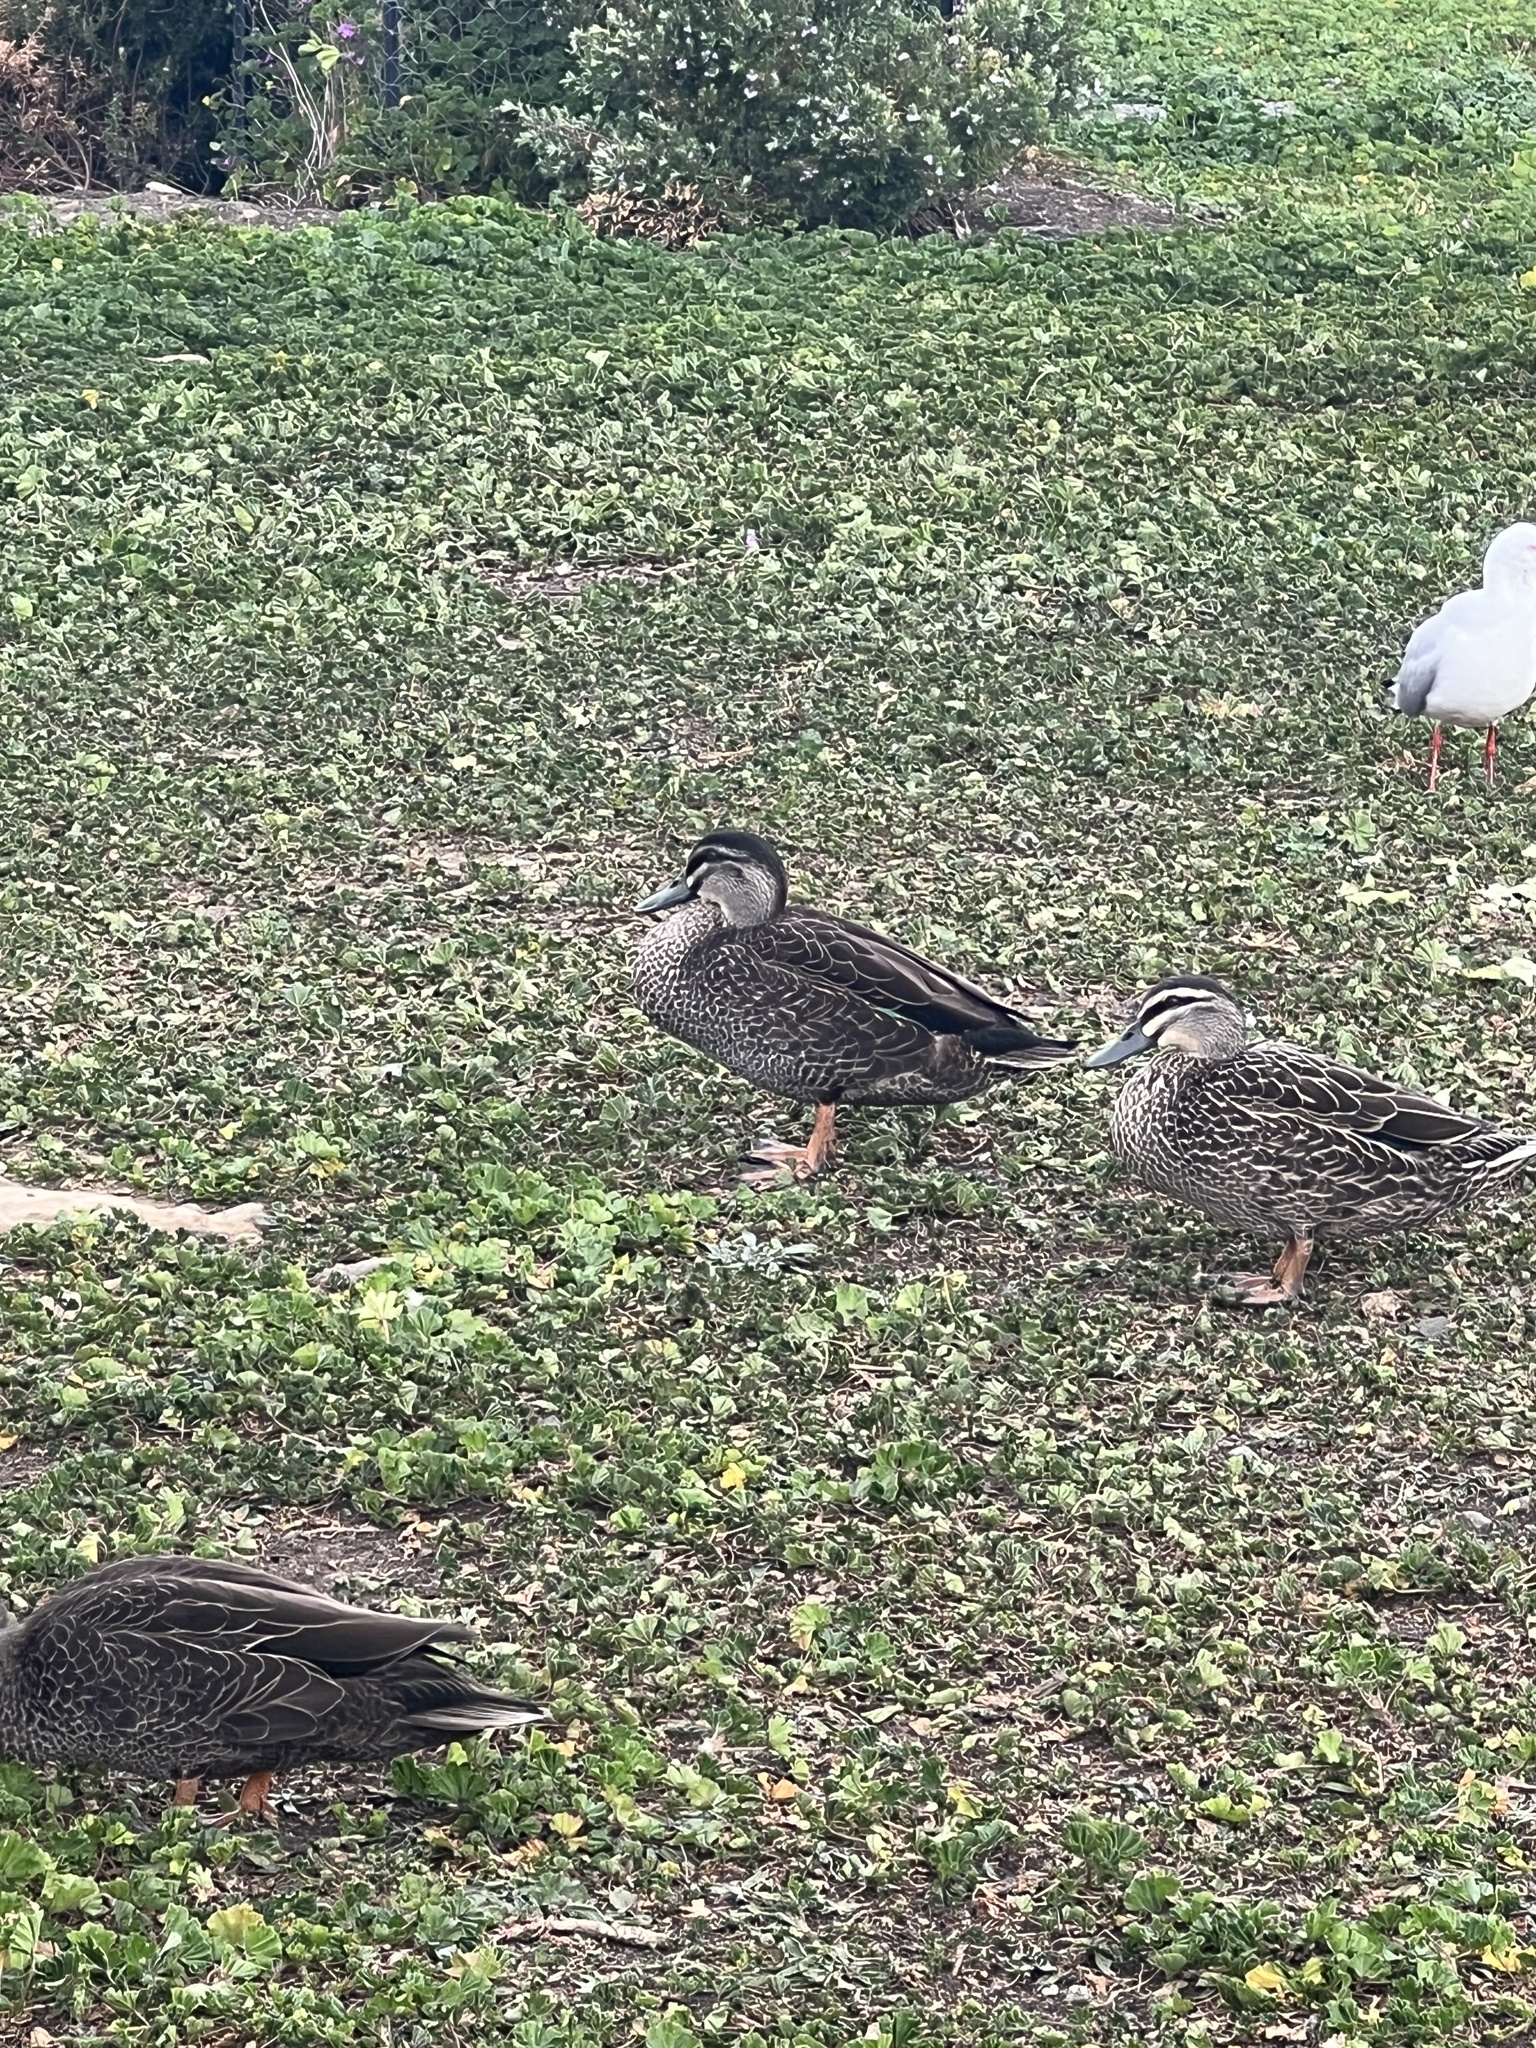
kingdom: Animalia
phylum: Chordata
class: Aves
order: Anseriformes
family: Anatidae
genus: Anas
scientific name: Anas
